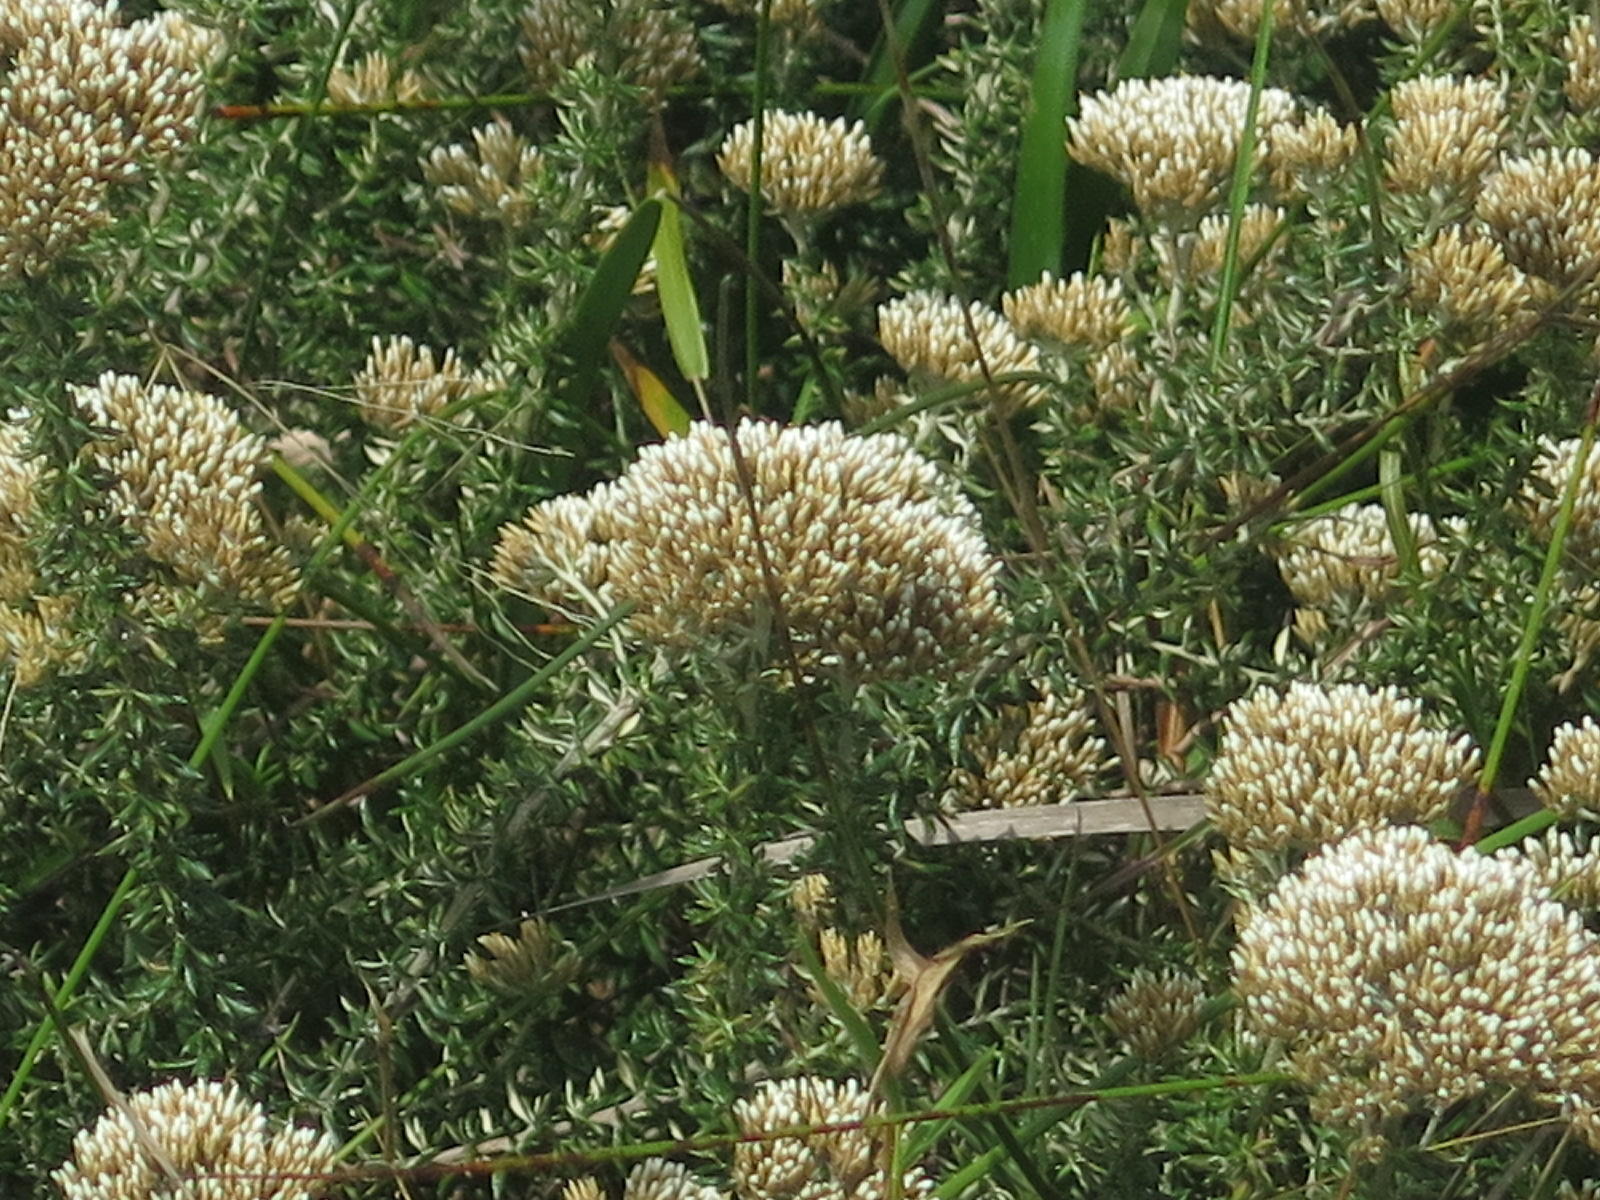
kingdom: Plantae
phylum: Tracheophyta
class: Magnoliopsida
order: Asterales
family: Asteraceae
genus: Metalasia
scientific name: Metalasia muricata
